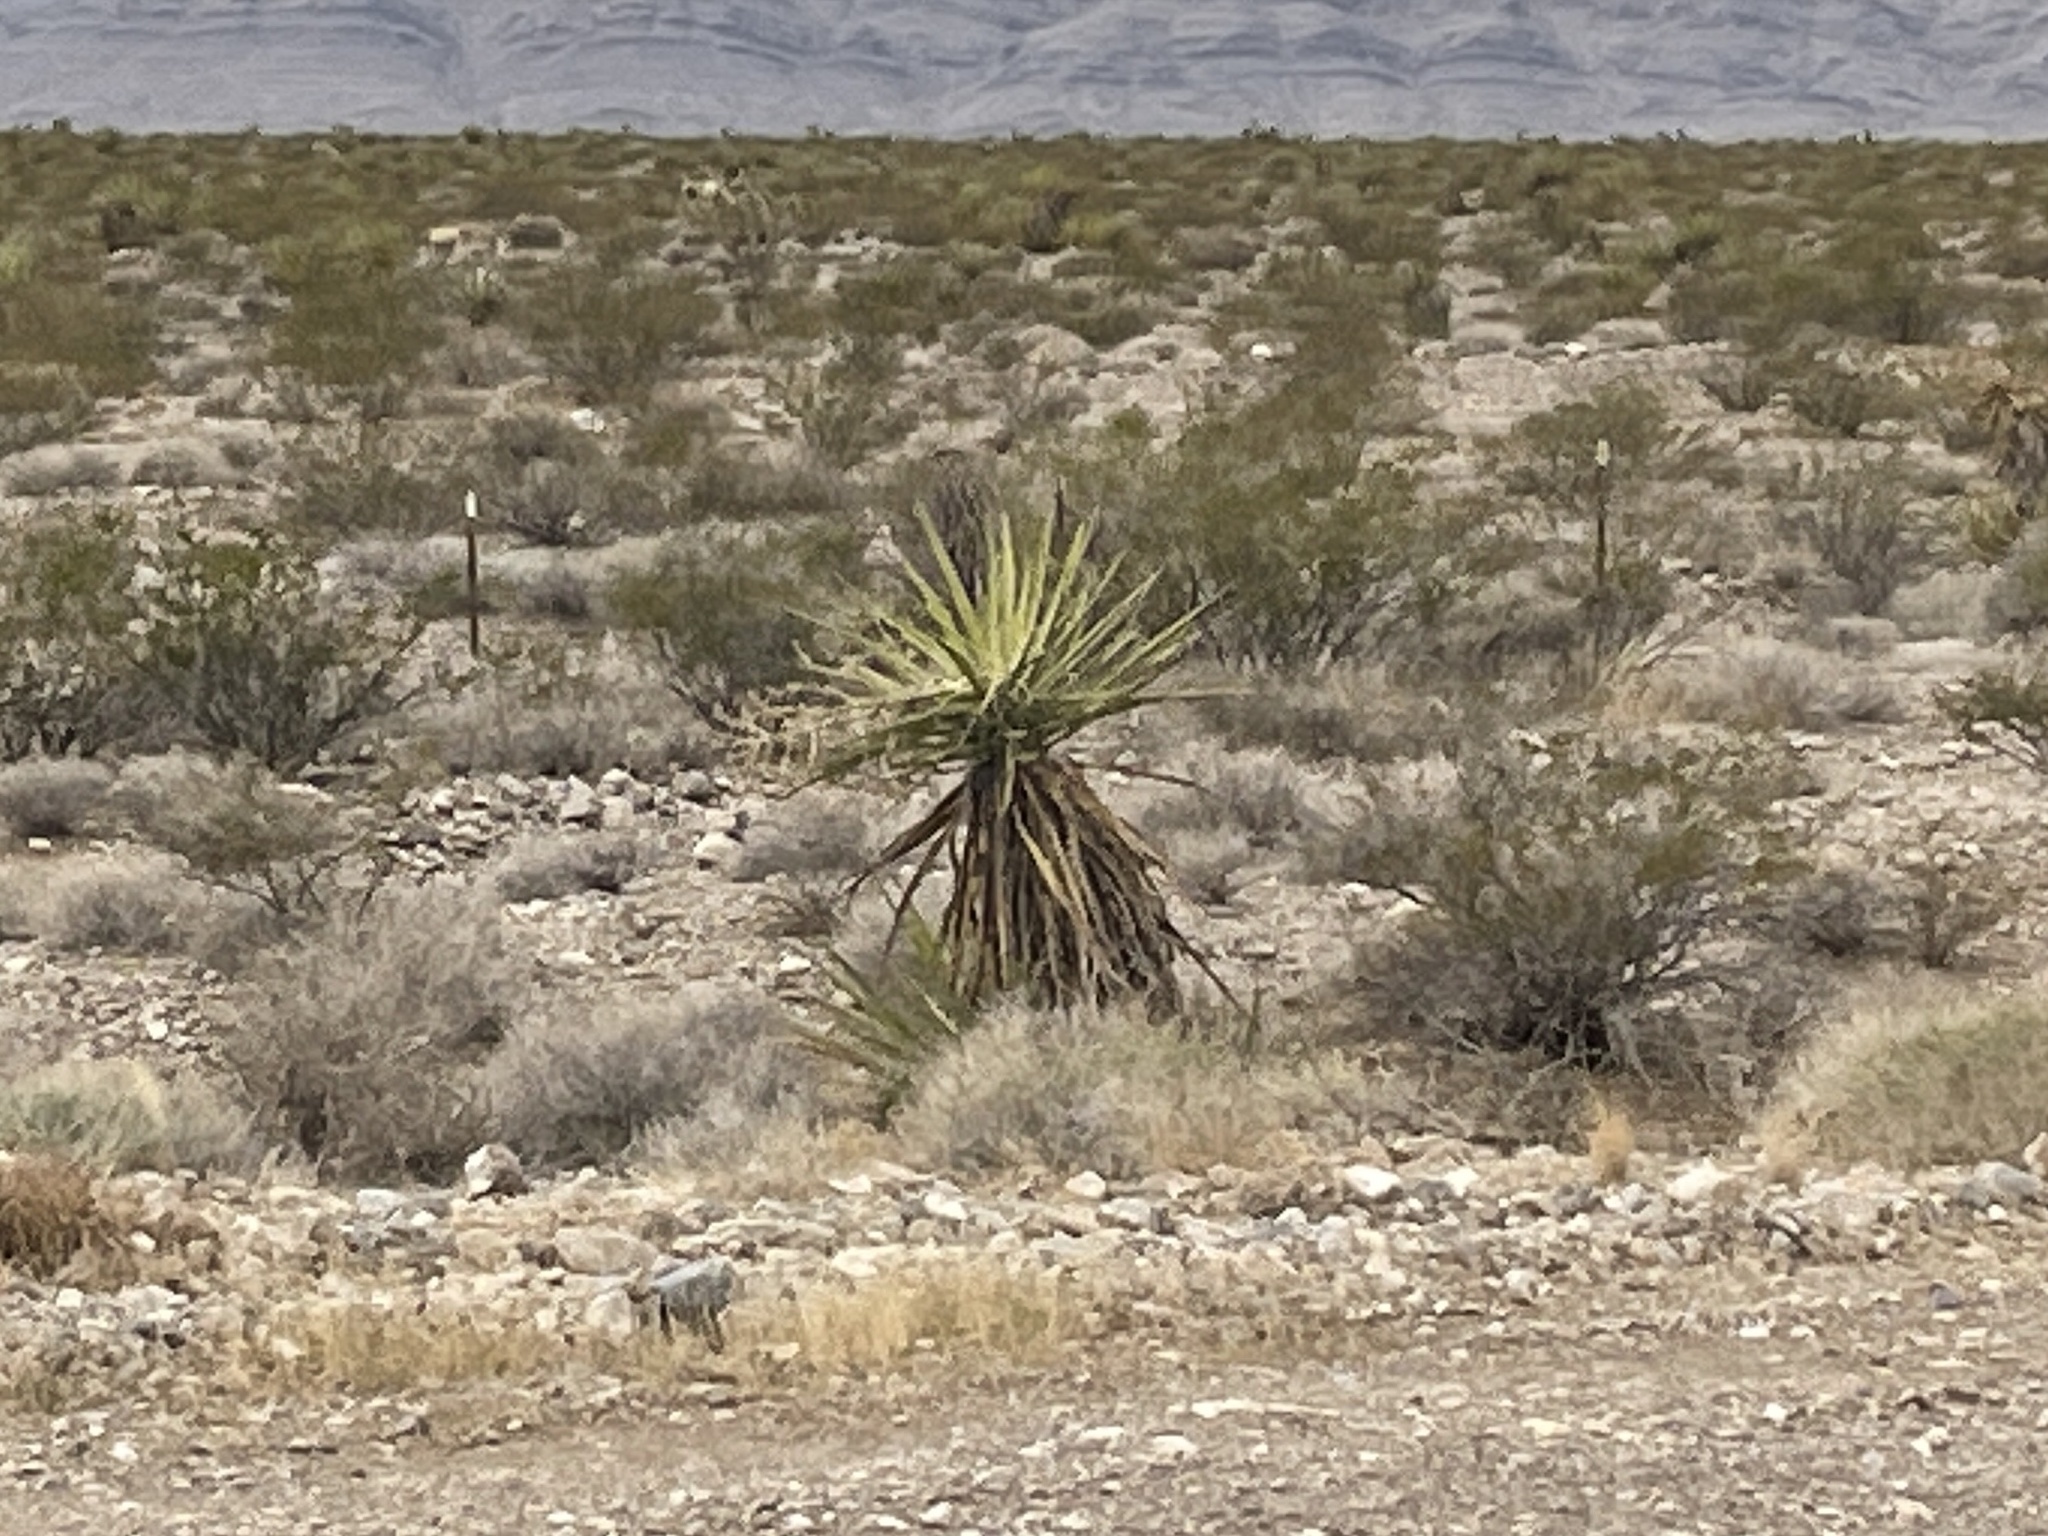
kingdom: Plantae
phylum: Tracheophyta
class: Liliopsida
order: Asparagales
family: Asparagaceae
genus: Yucca
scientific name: Yucca schidigera
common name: Mojave yucca
